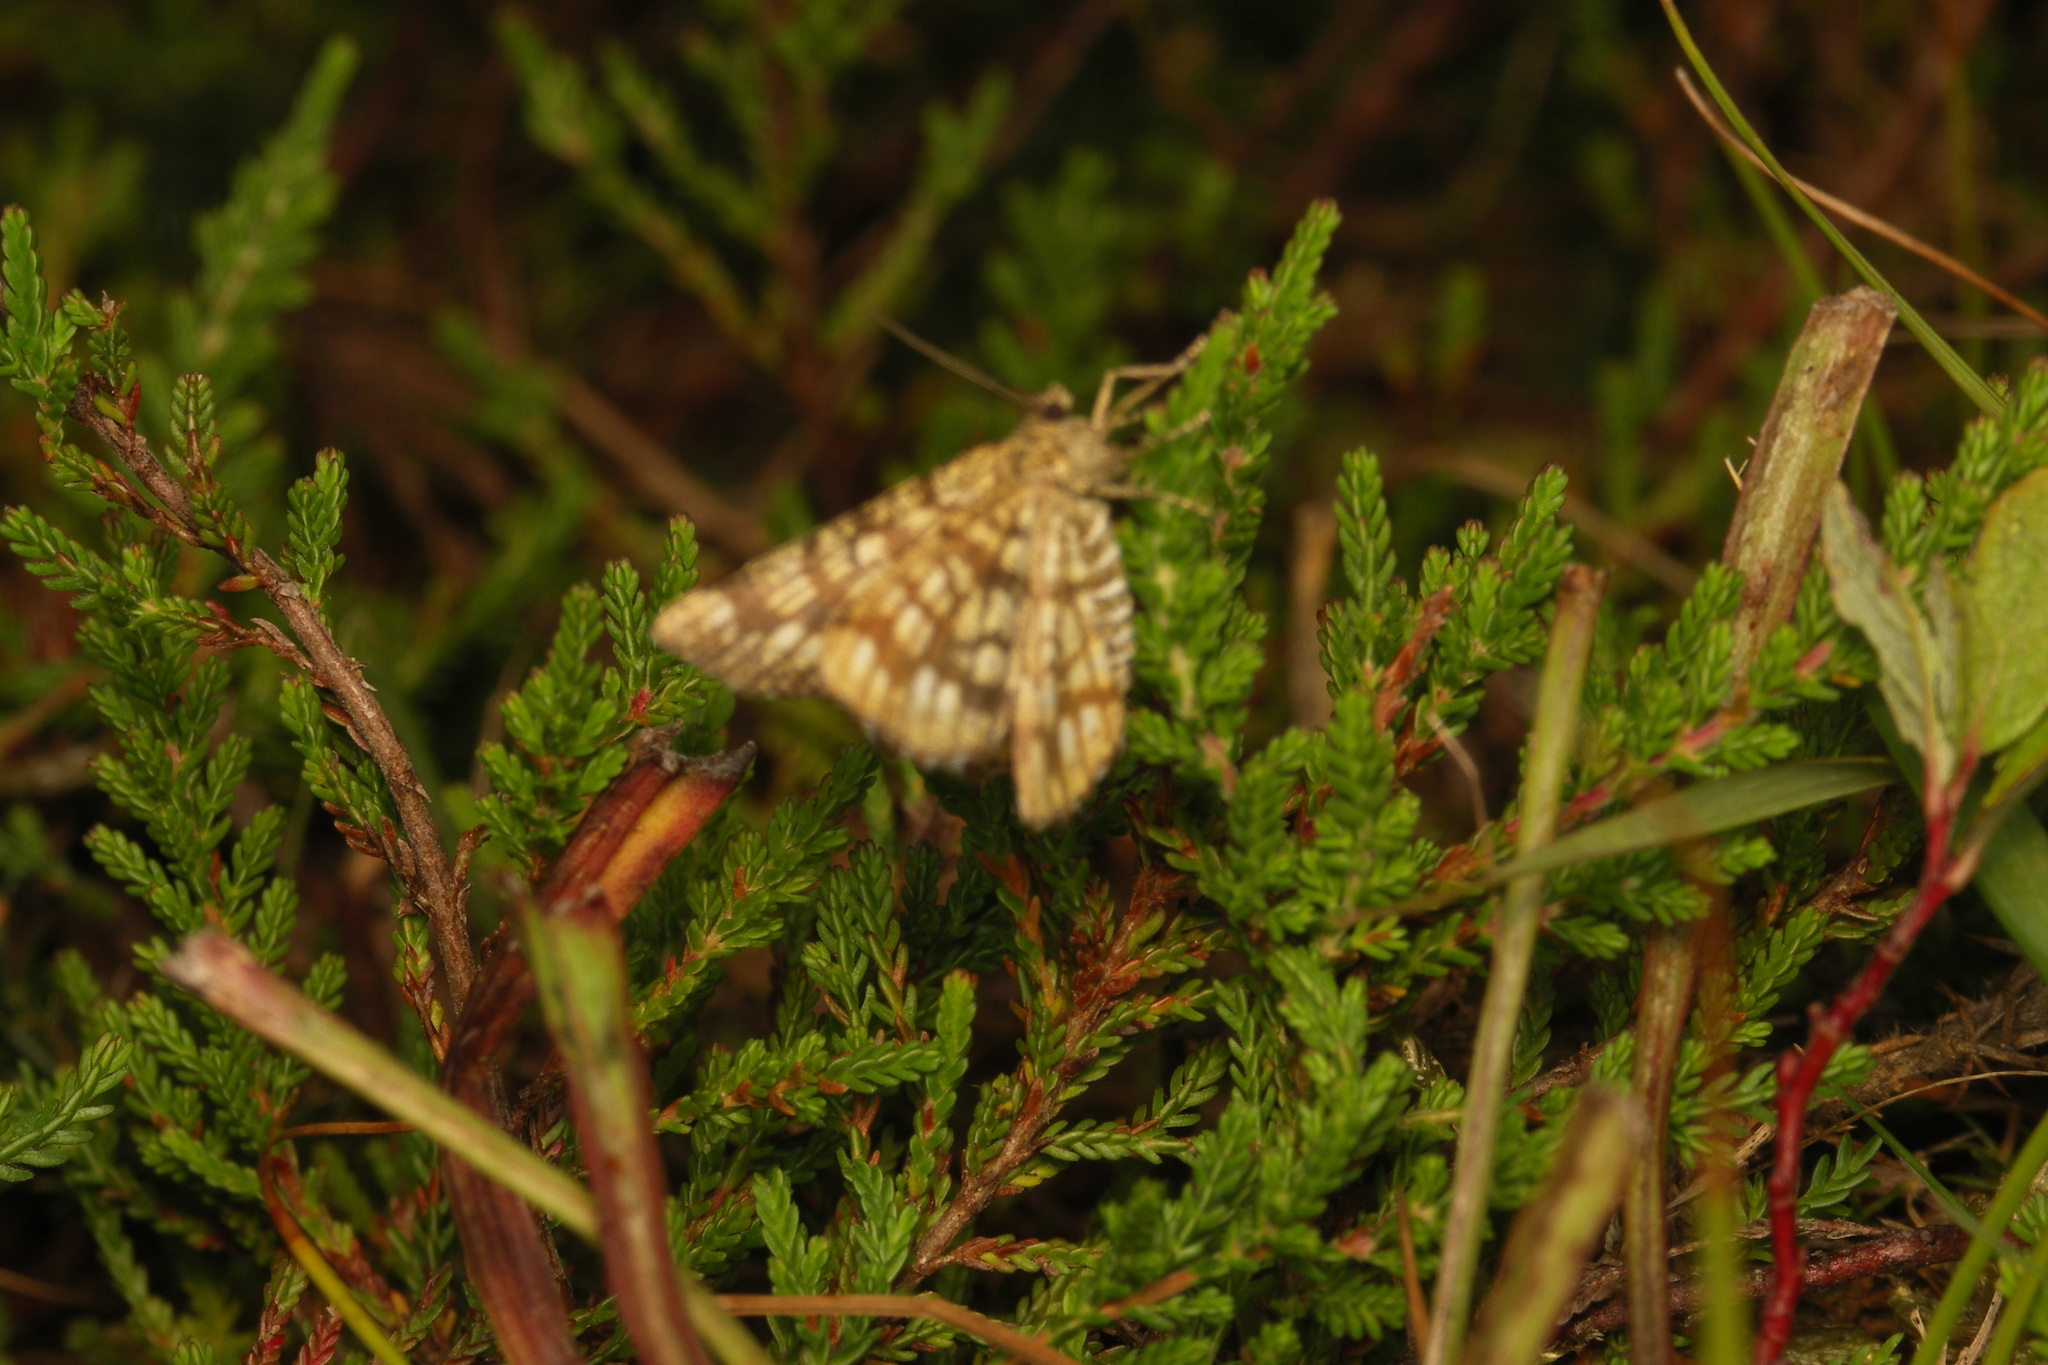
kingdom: Animalia
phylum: Arthropoda
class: Insecta
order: Lepidoptera
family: Geometridae
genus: Chiasmia
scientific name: Chiasmia clathrata
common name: Latticed heath
